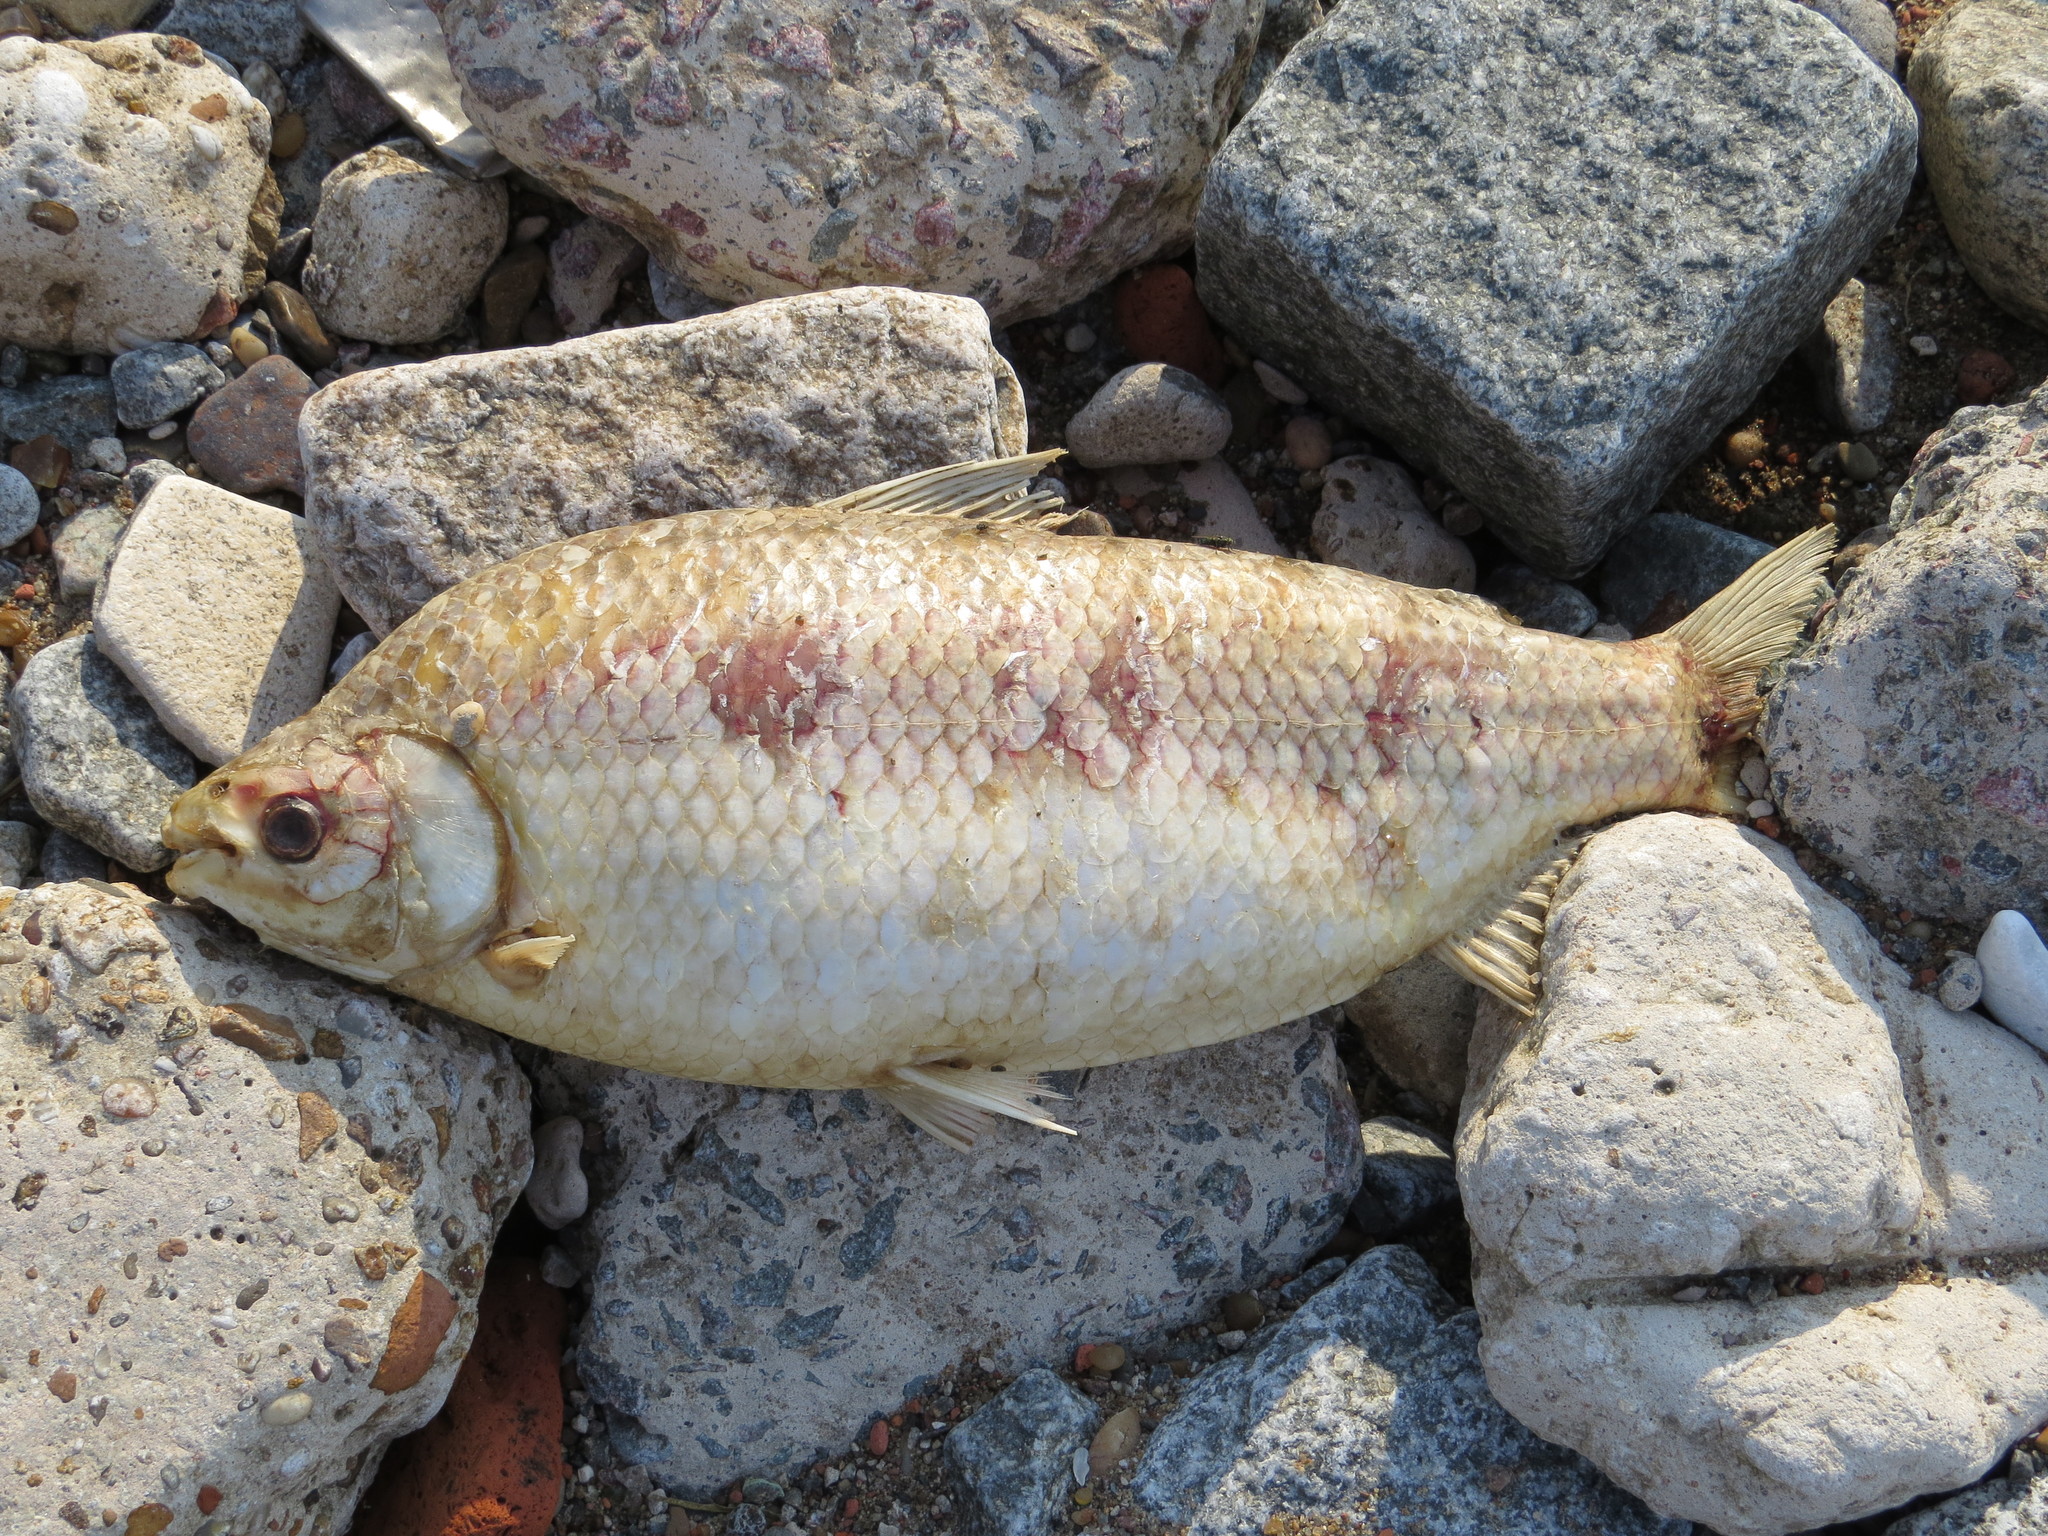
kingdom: Animalia
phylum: Chordata
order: Characiformes
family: Prochilodontidae
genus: Prochilodus
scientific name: Prochilodus lineatus
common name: Curimbata
